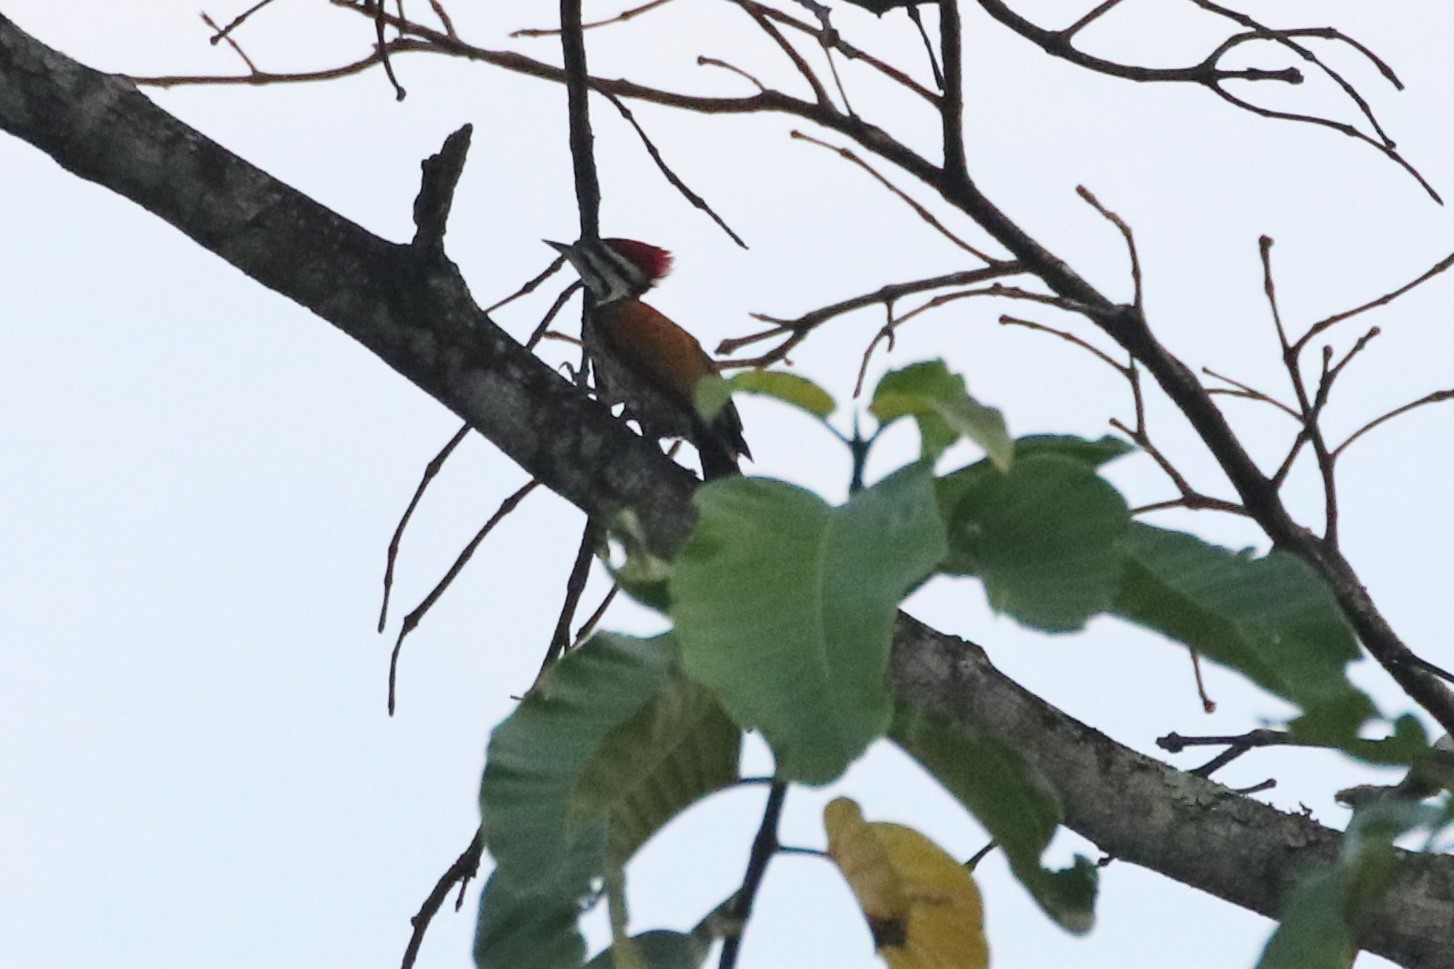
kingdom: Animalia
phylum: Chordata
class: Aves
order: Piciformes
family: Picidae
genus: Dinopium
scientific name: Dinopium javanense
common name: Common flameback
